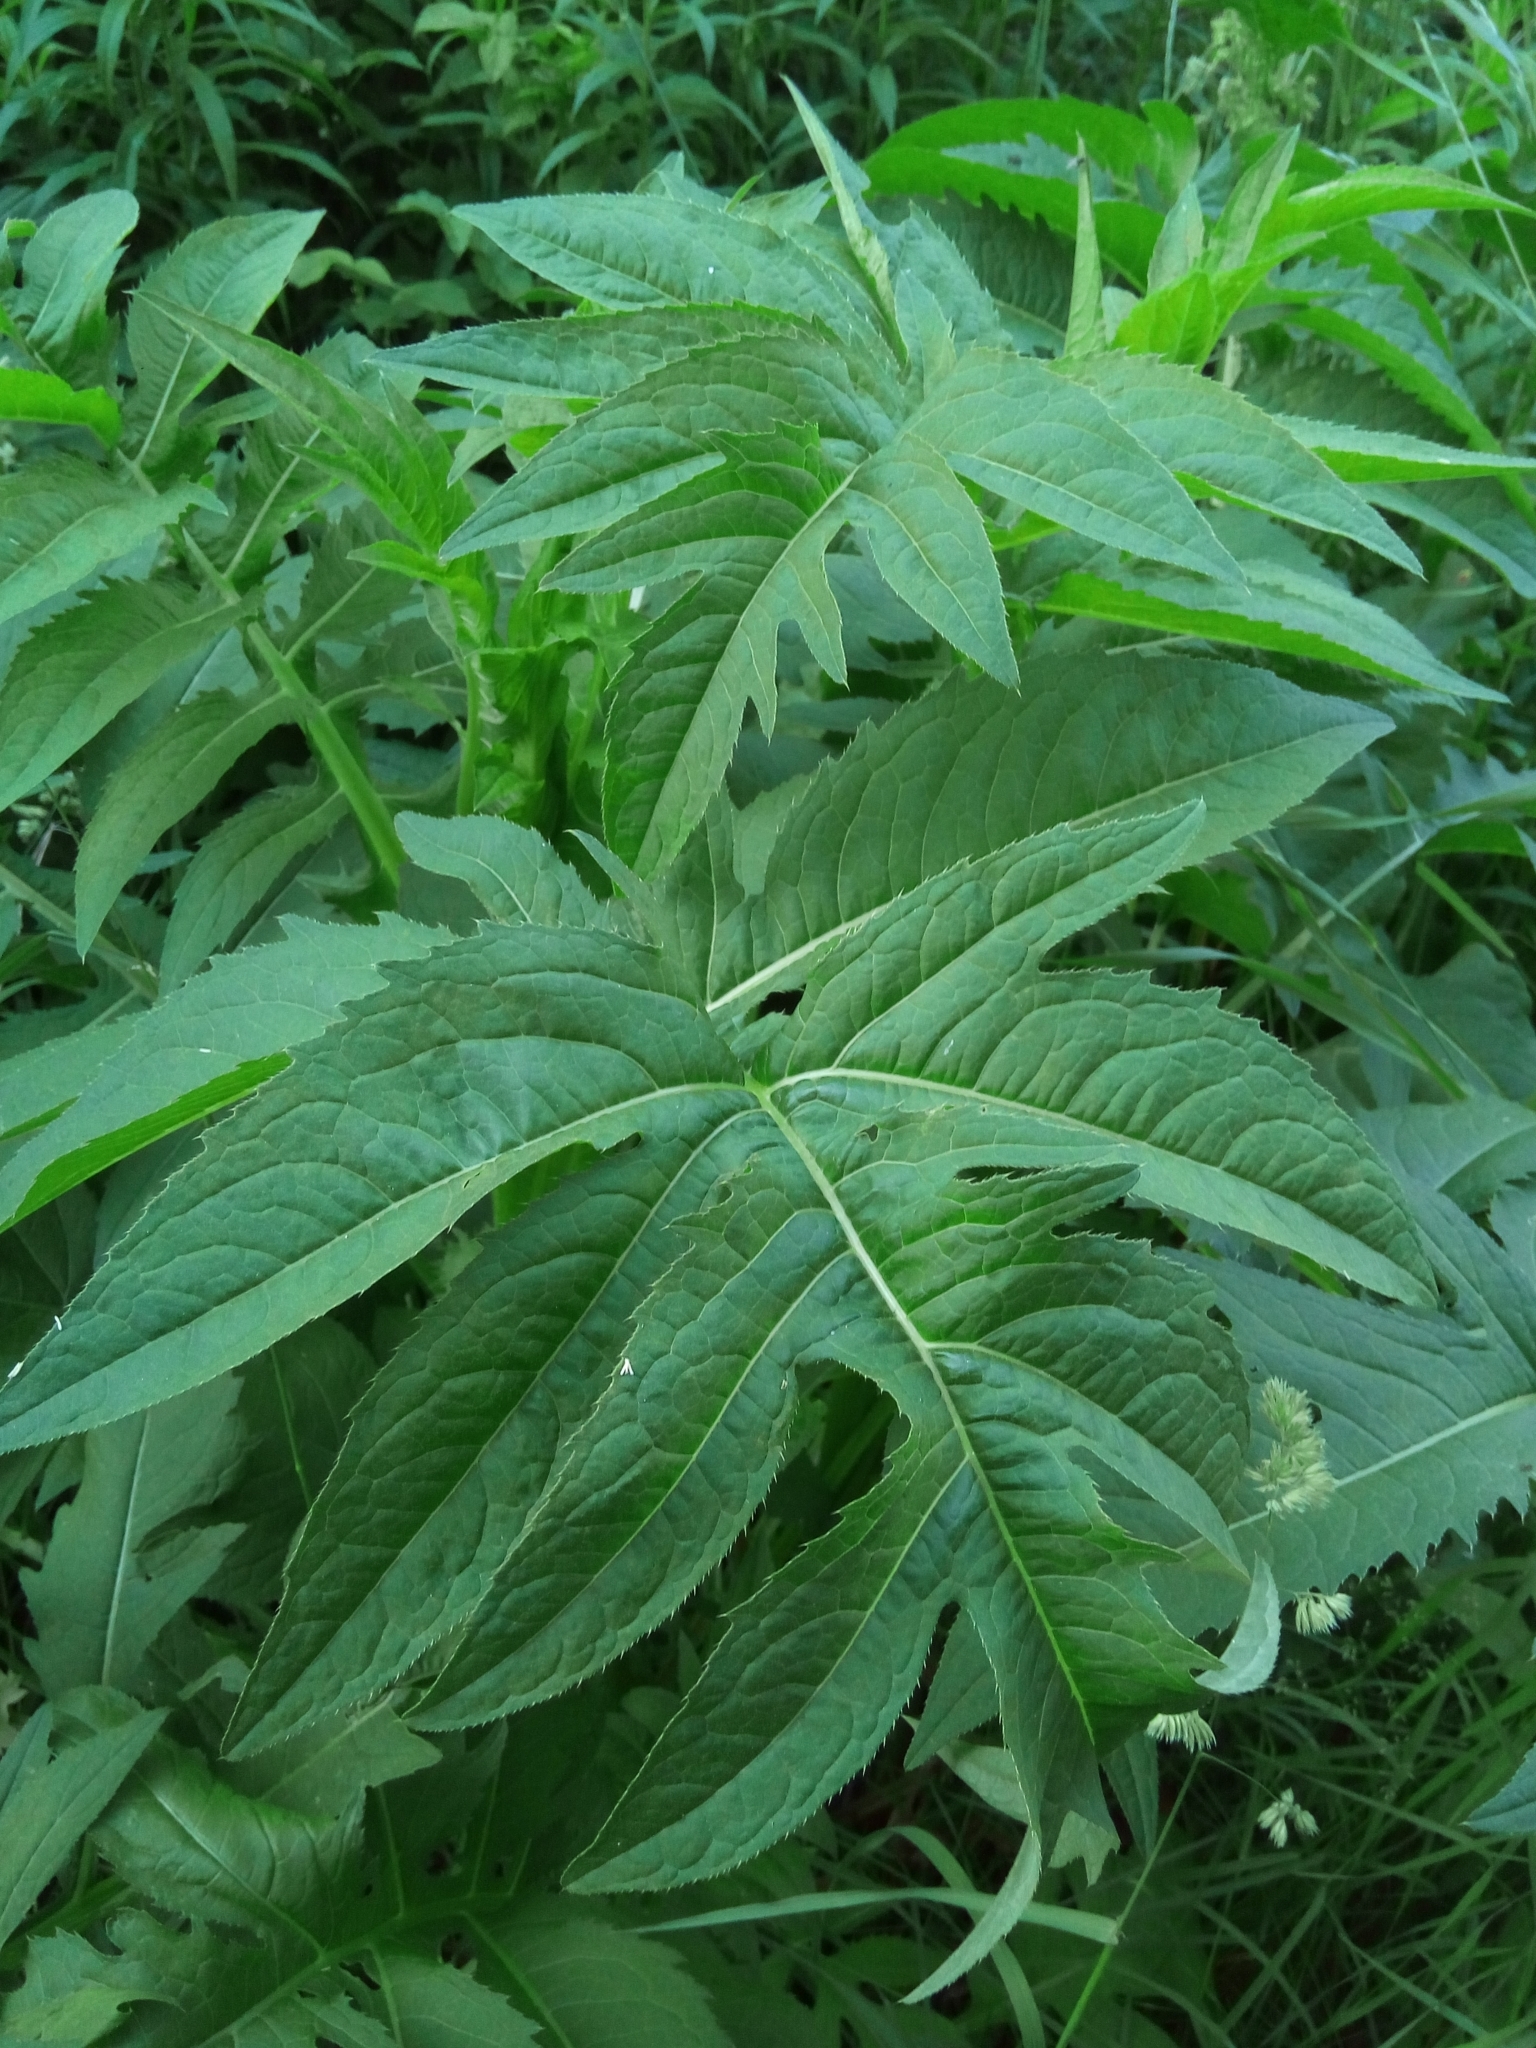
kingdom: Plantae
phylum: Tracheophyta
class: Magnoliopsida
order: Asterales
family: Asteraceae
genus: Cirsium
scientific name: Cirsium oleraceum
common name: Cabbage thistle
